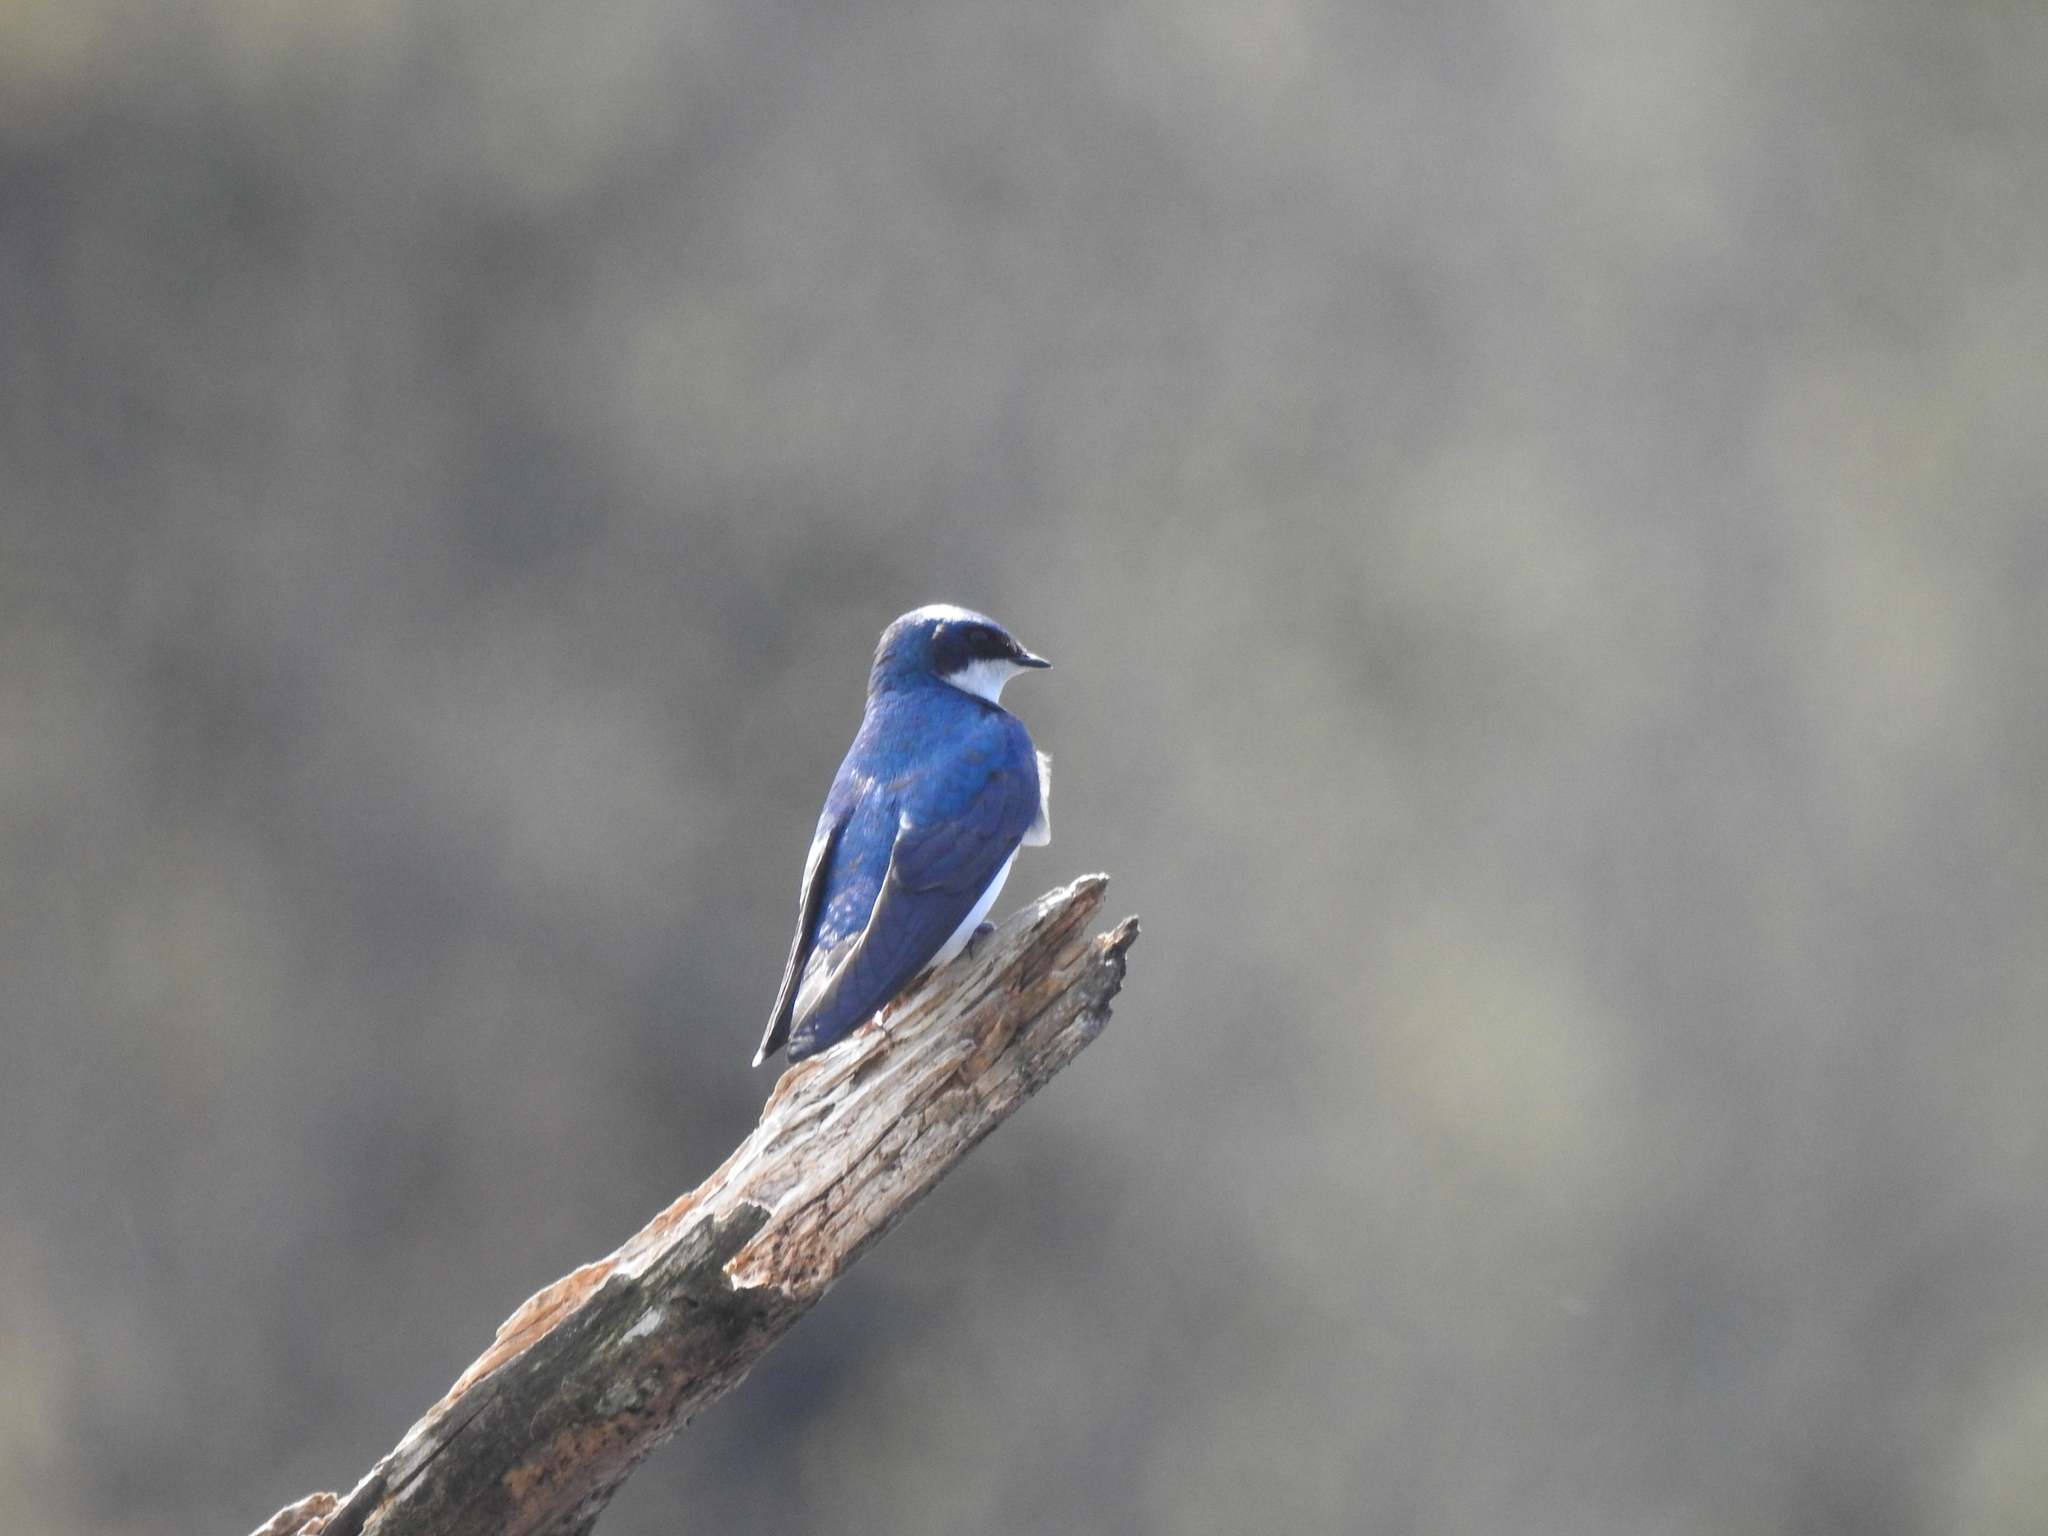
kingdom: Animalia
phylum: Chordata
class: Aves
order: Passeriformes
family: Hirundinidae
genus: Tachycineta
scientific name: Tachycineta bicolor
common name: Tree swallow
